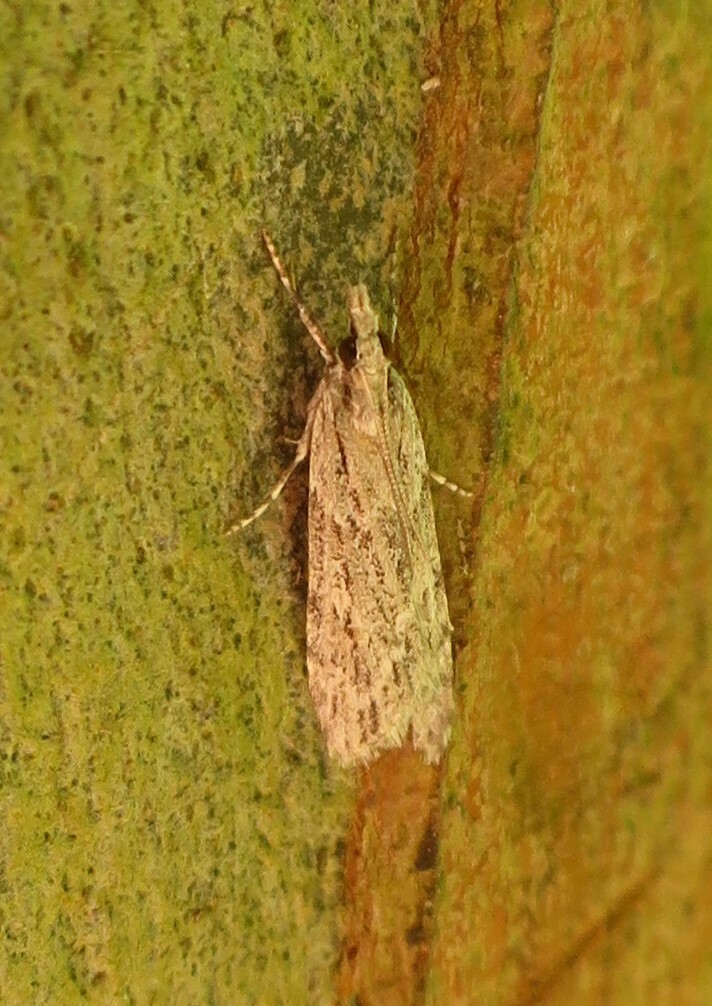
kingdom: Animalia
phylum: Arthropoda
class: Insecta
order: Lepidoptera
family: Crambidae
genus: Scoparia
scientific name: Scoparia chalicodes
